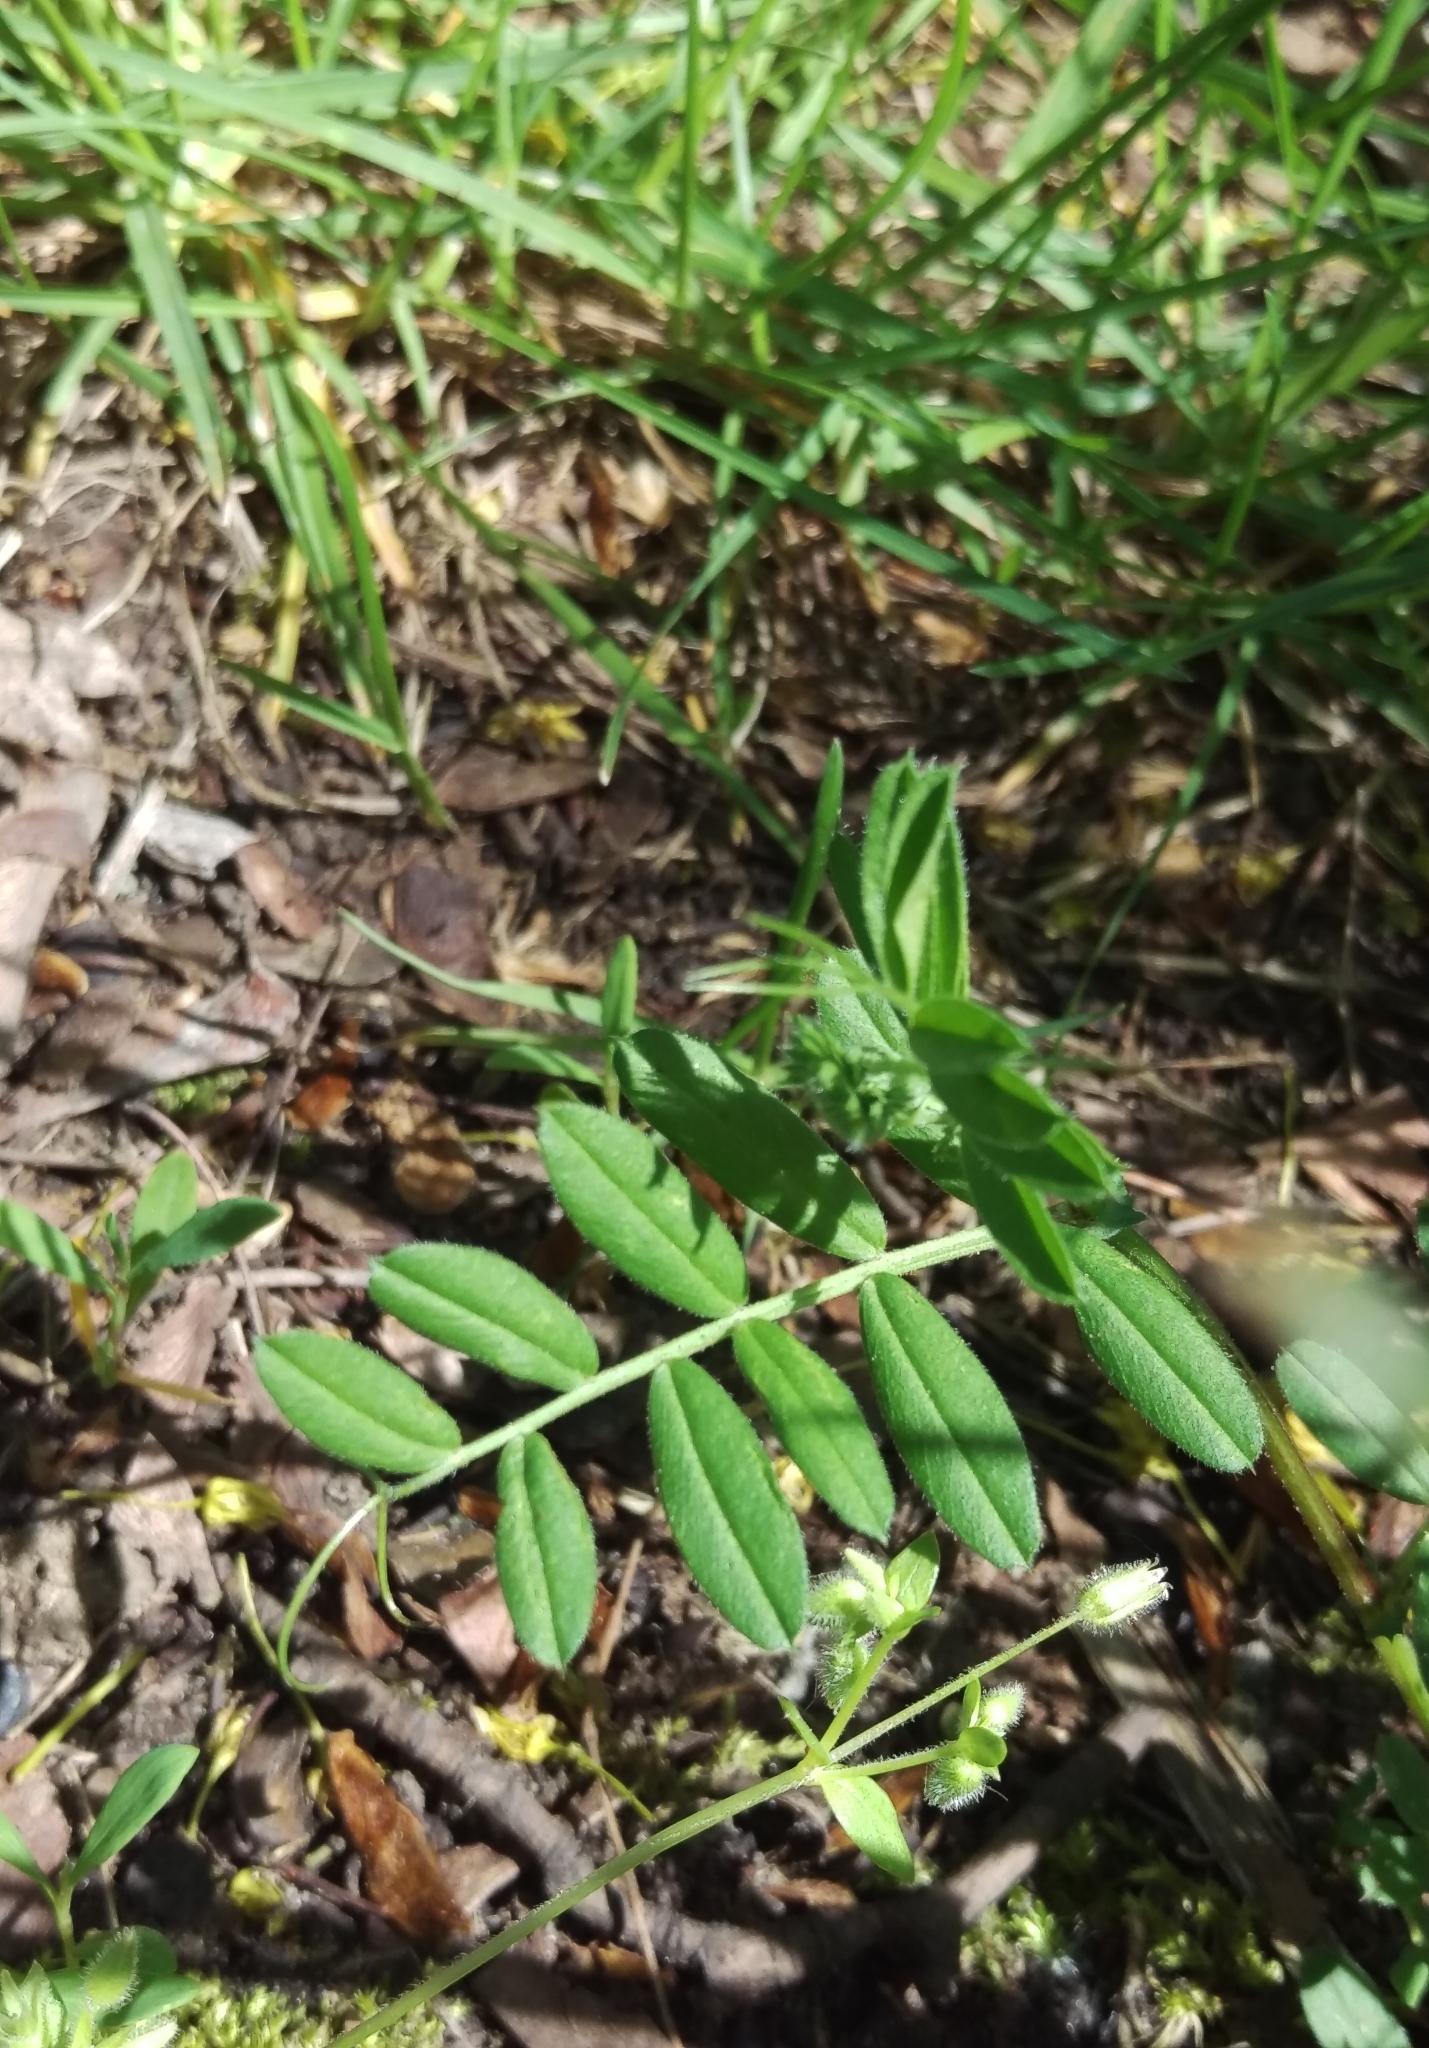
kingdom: Plantae
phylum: Tracheophyta
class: Magnoliopsida
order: Fabales
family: Fabaceae
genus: Vicia
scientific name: Vicia sativa
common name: Garden vetch
